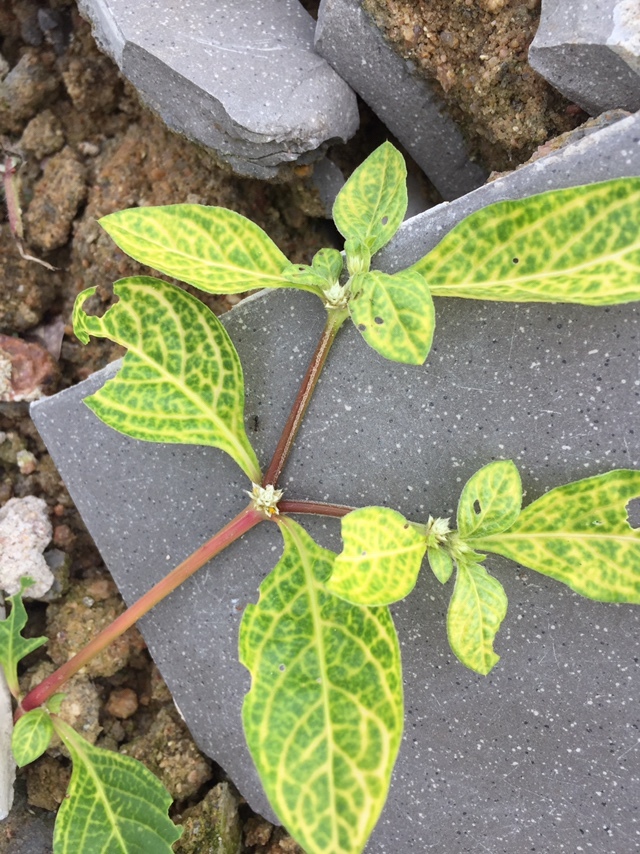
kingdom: Viruses
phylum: Cressdnaviricota
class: Repensiviricetes
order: Geplafuvirales
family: Geminiviridae
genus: Begomovirus
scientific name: Begomovirus Alternanthera yellow vein virus
